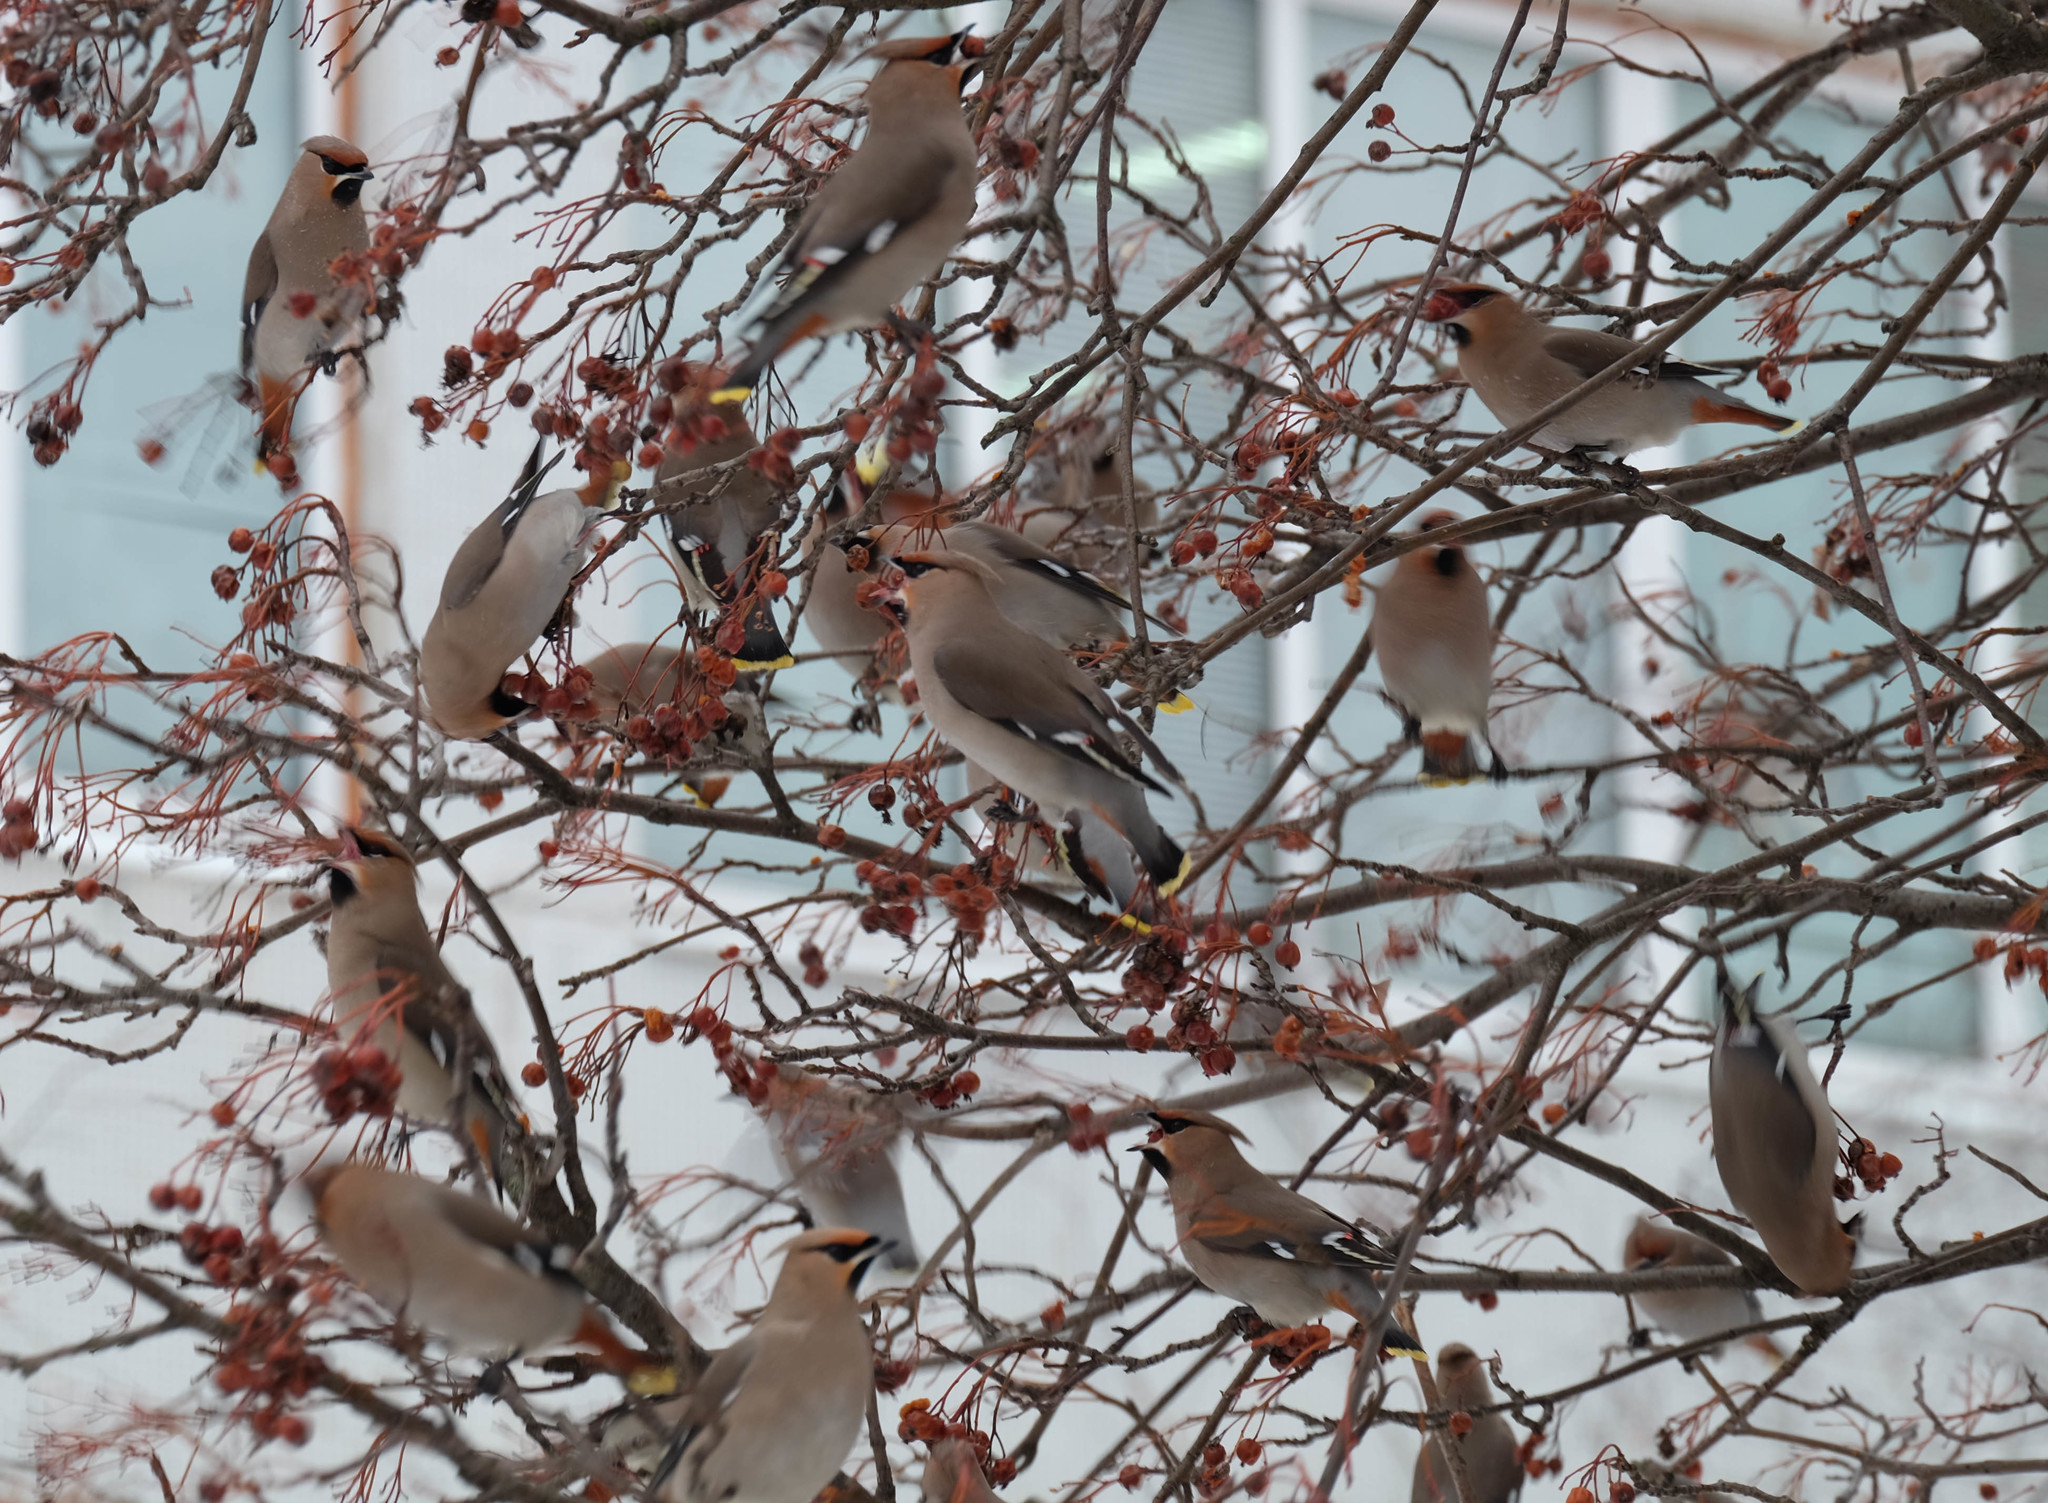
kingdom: Animalia
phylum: Chordata
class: Aves
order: Passeriformes
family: Bombycillidae
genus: Bombycilla
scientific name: Bombycilla garrulus
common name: Bohemian waxwing
